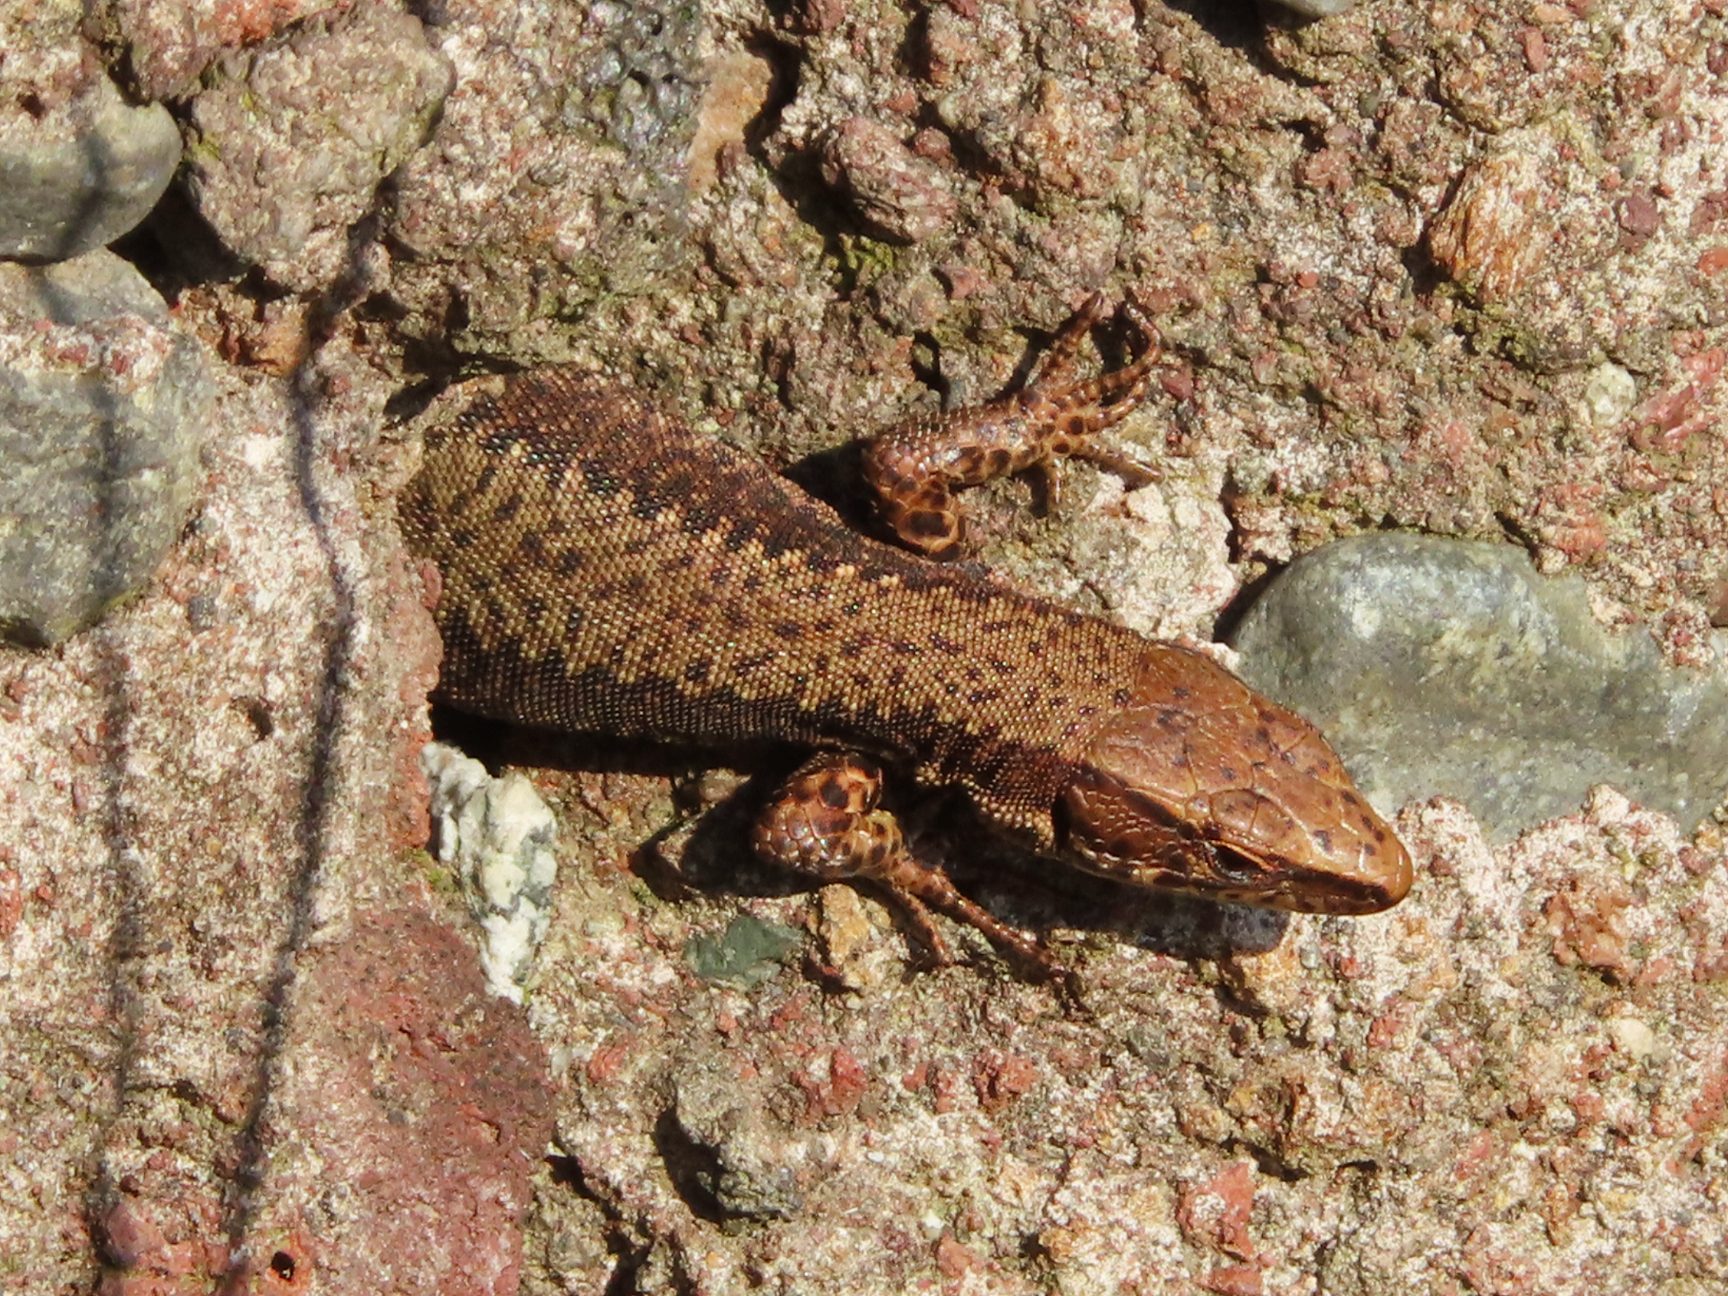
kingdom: Animalia
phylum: Chordata
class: Squamata
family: Lacertidae
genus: Darevskia
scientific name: Darevskia derjugini
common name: Derjugin's lizard
